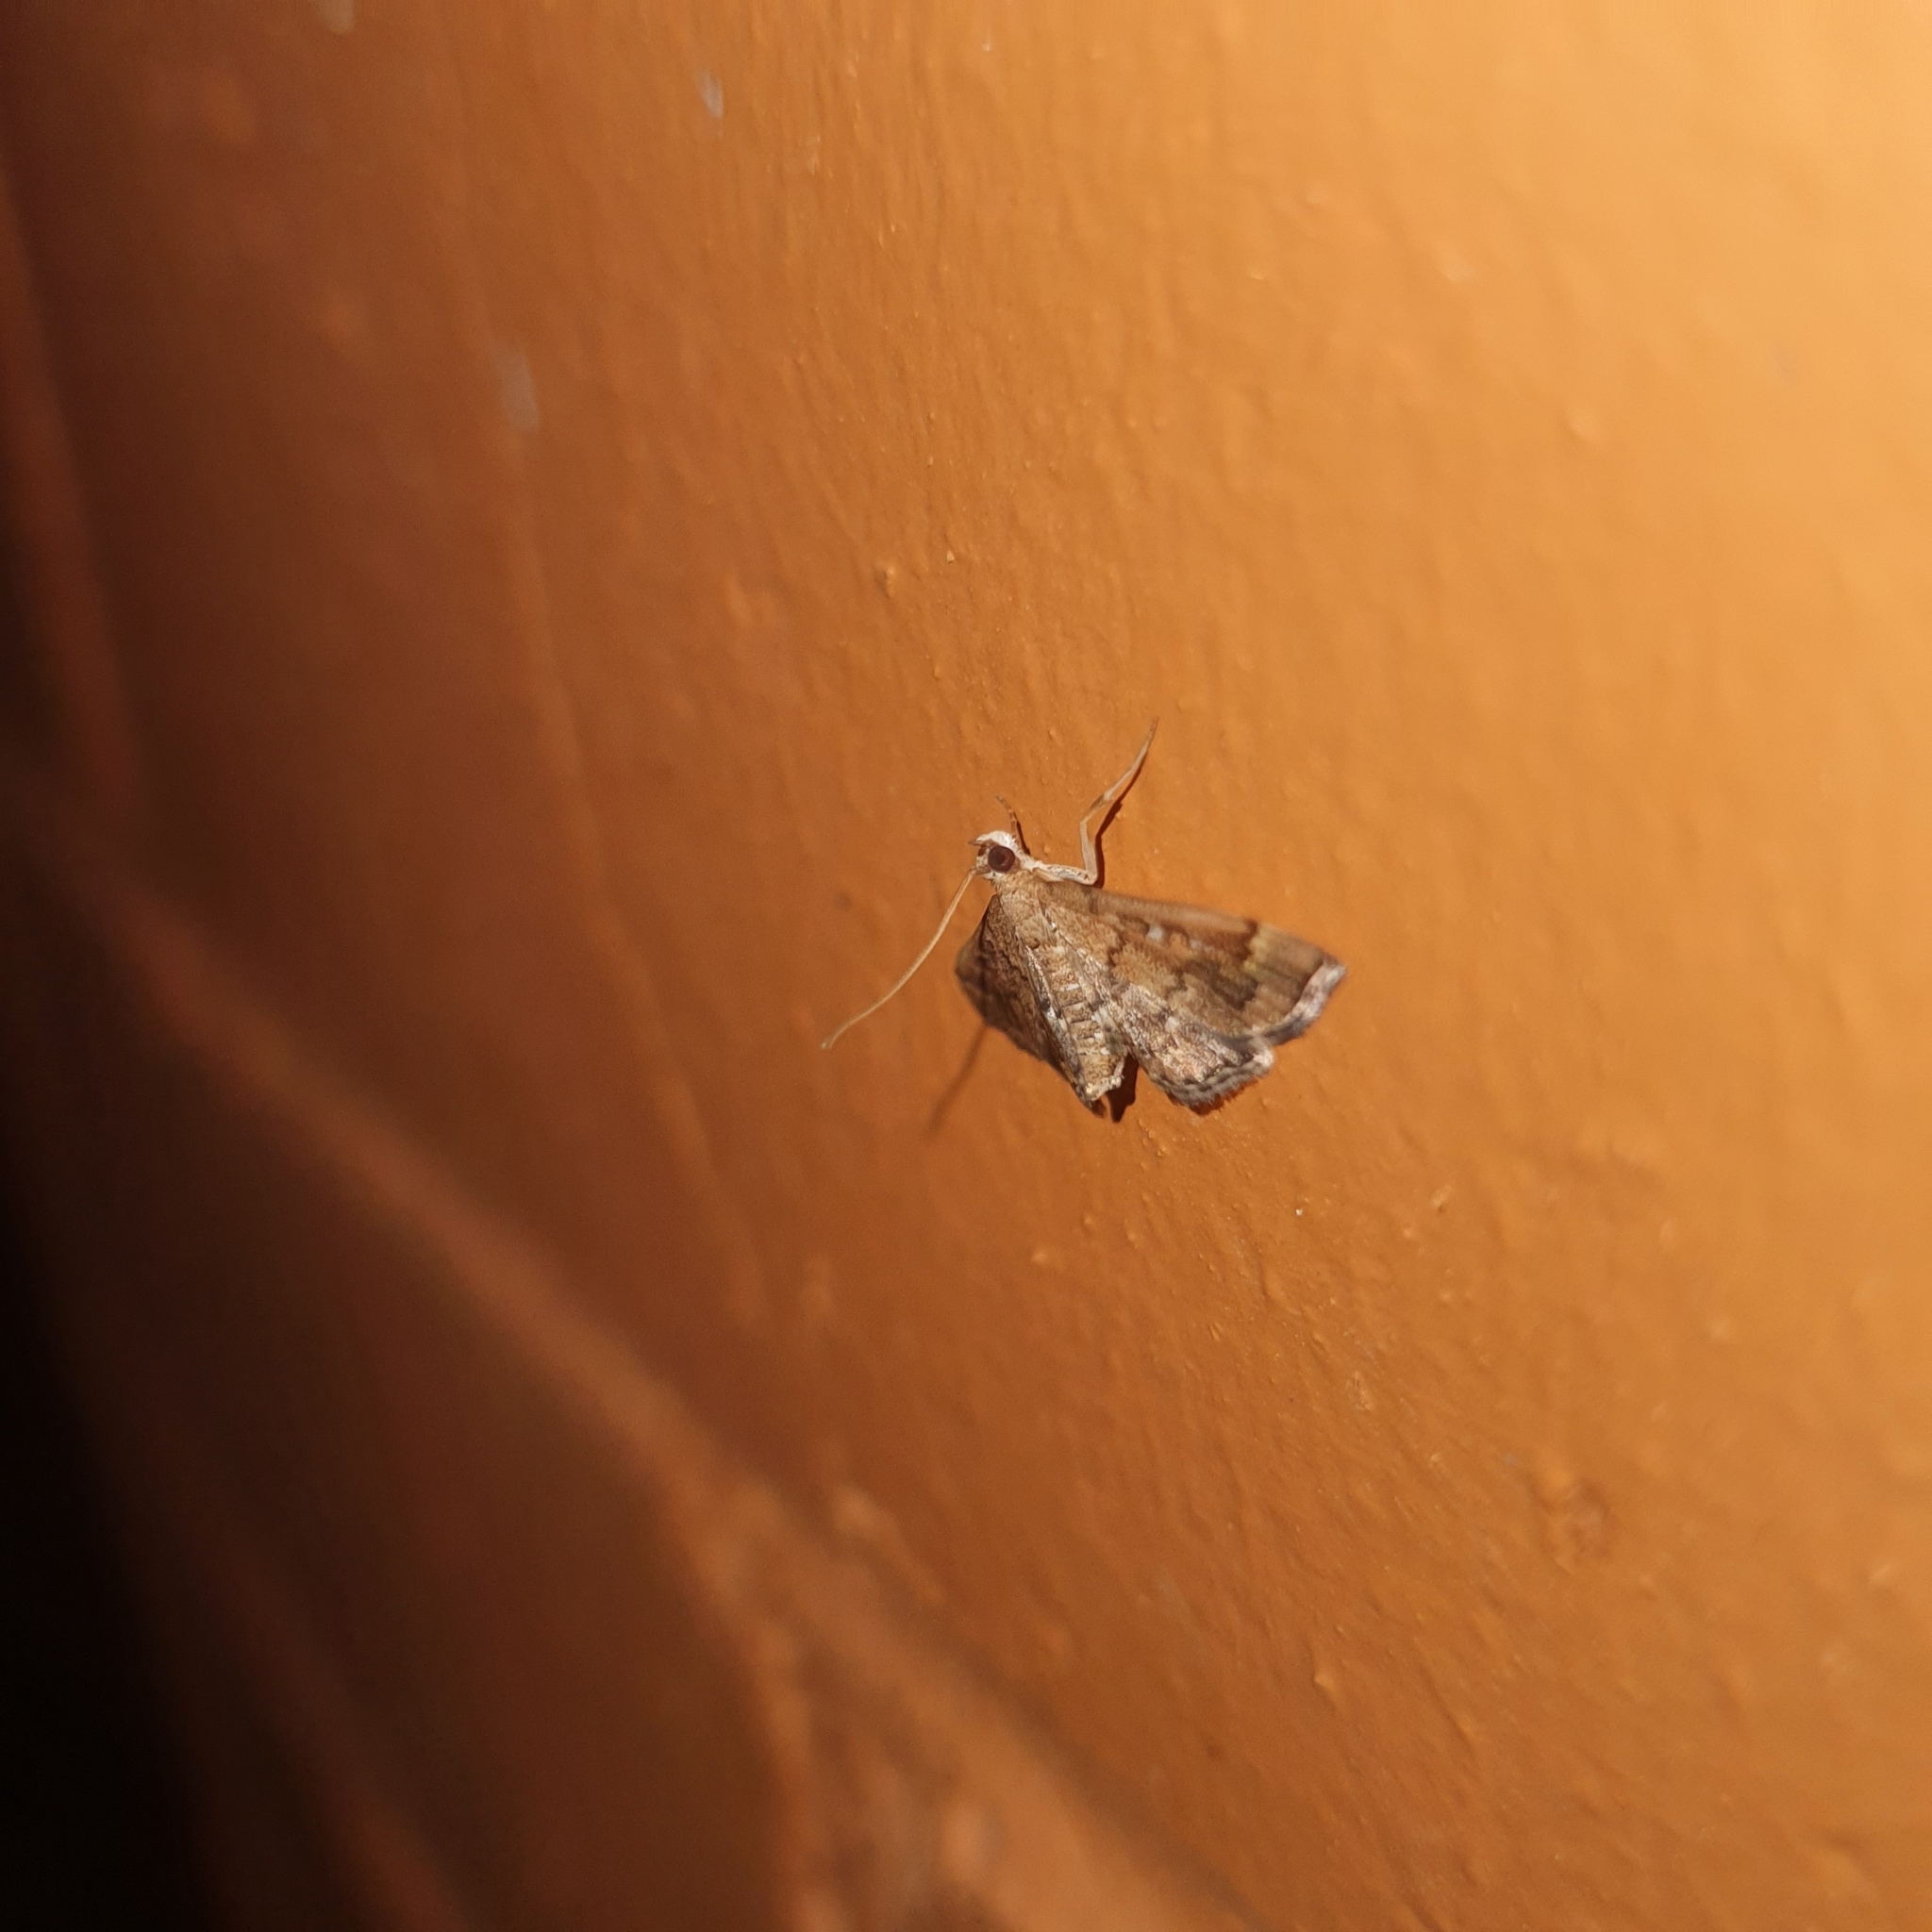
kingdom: Animalia
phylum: Arthropoda
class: Insecta
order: Lepidoptera
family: Crambidae
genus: Nacoleia
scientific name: Nacoleia rhoeoalis
